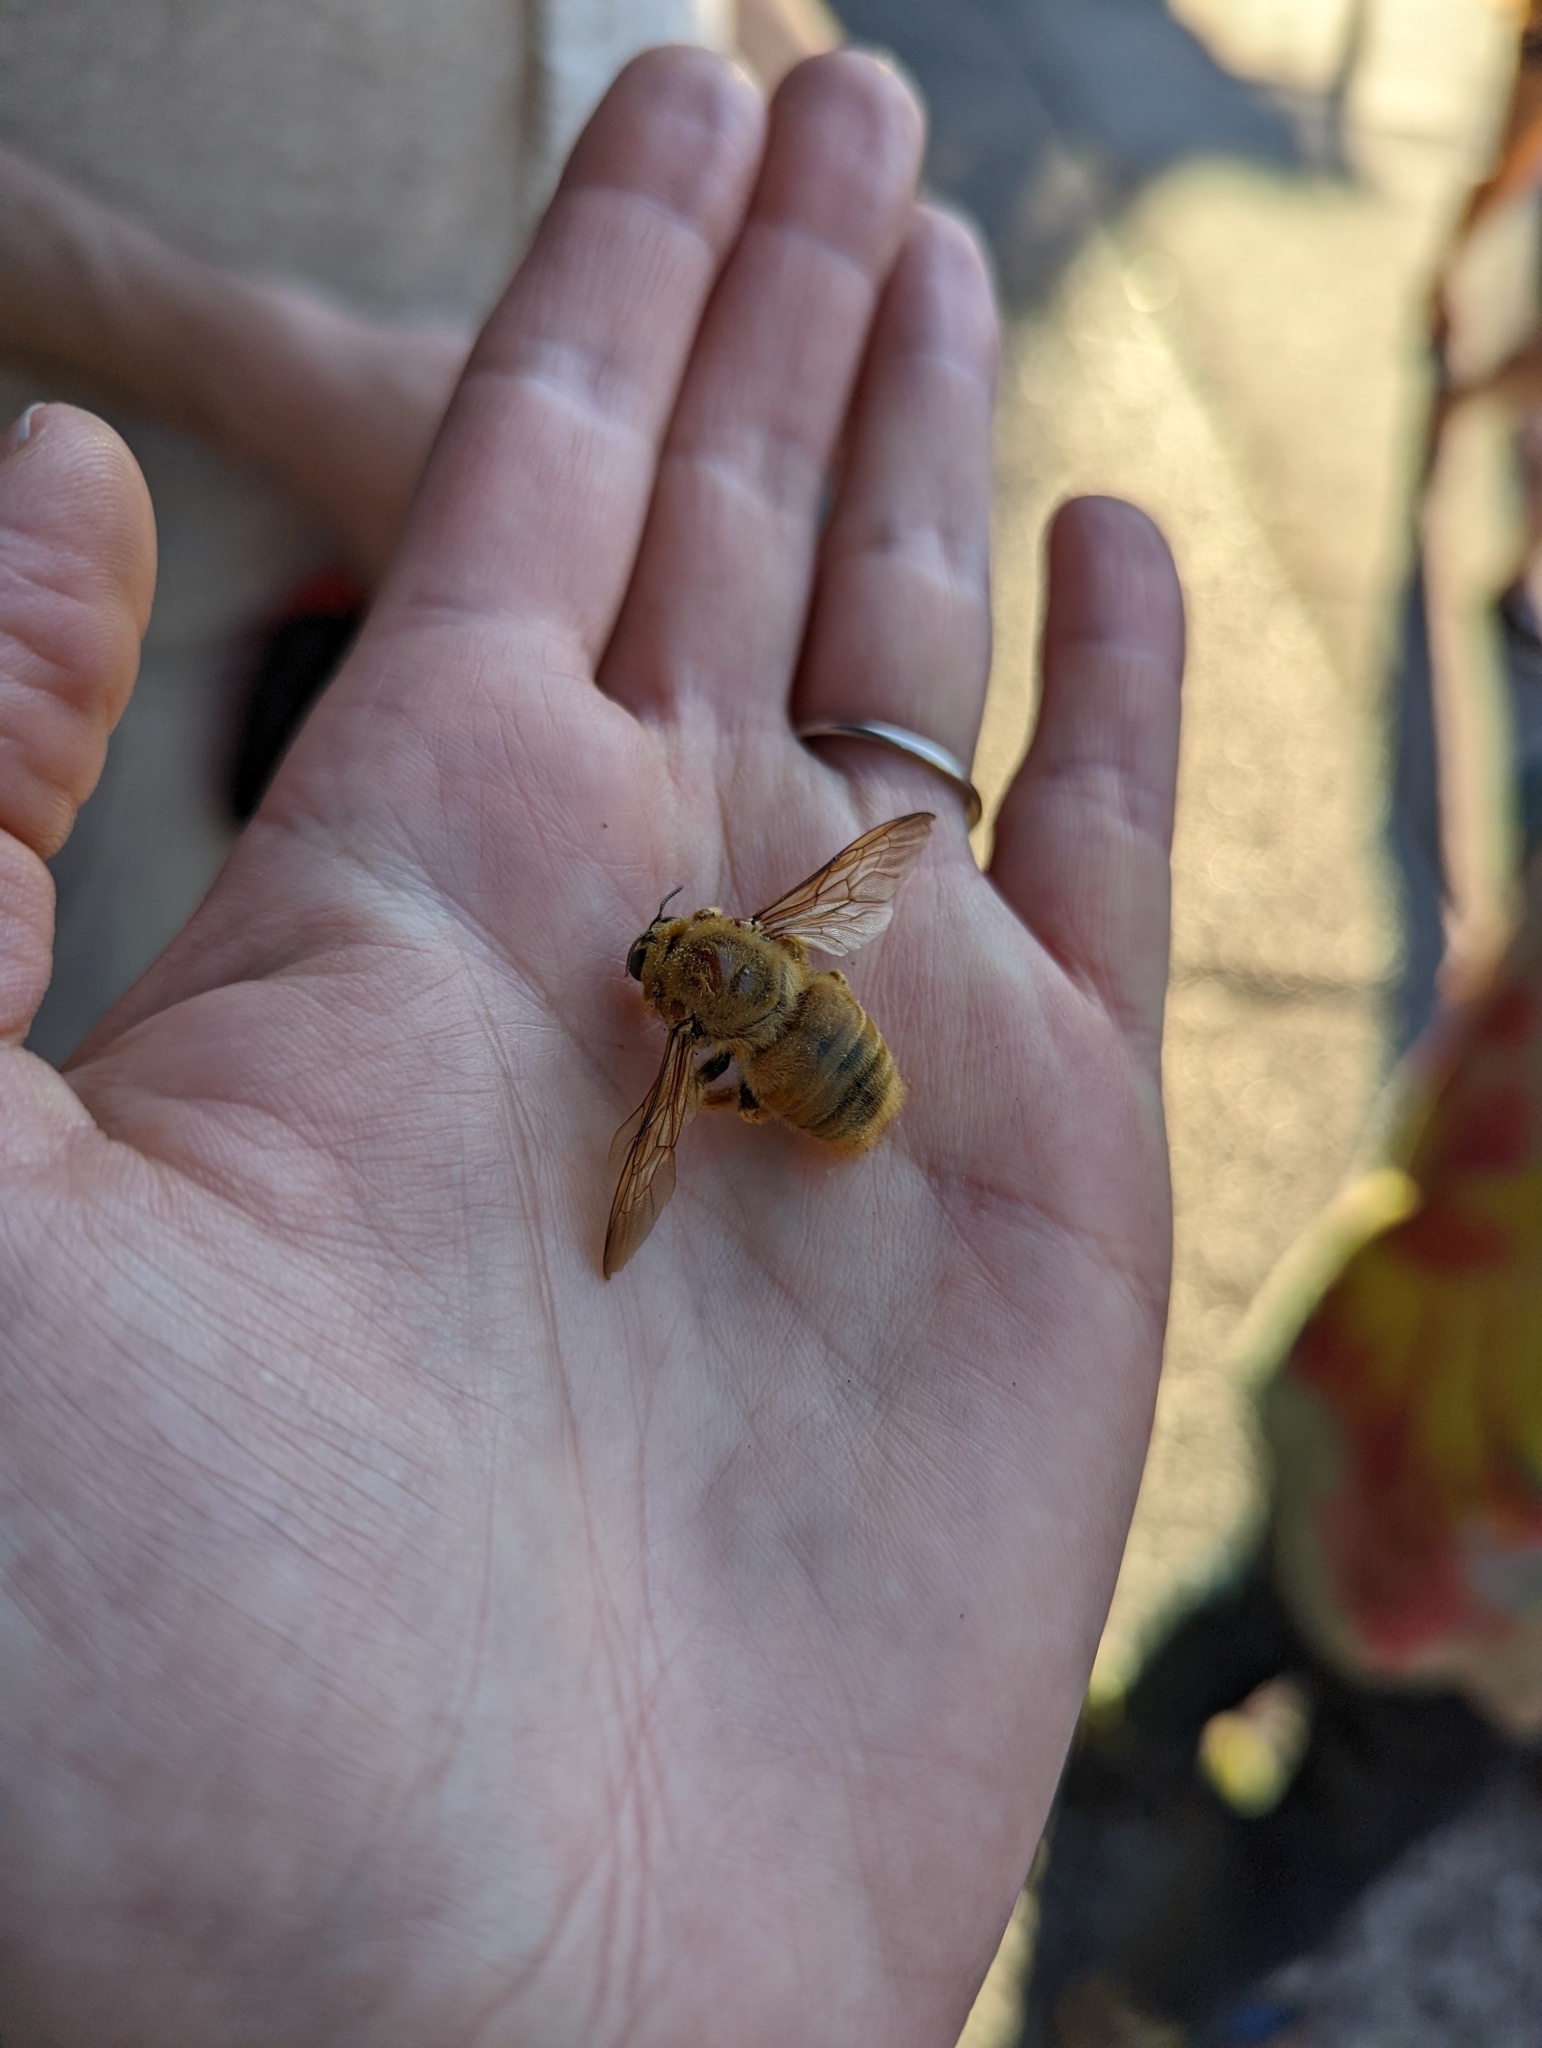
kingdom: Animalia
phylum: Arthropoda
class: Insecta
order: Hymenoptera
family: Apidae
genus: Xylocopa
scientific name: Xylocopa sonorina
